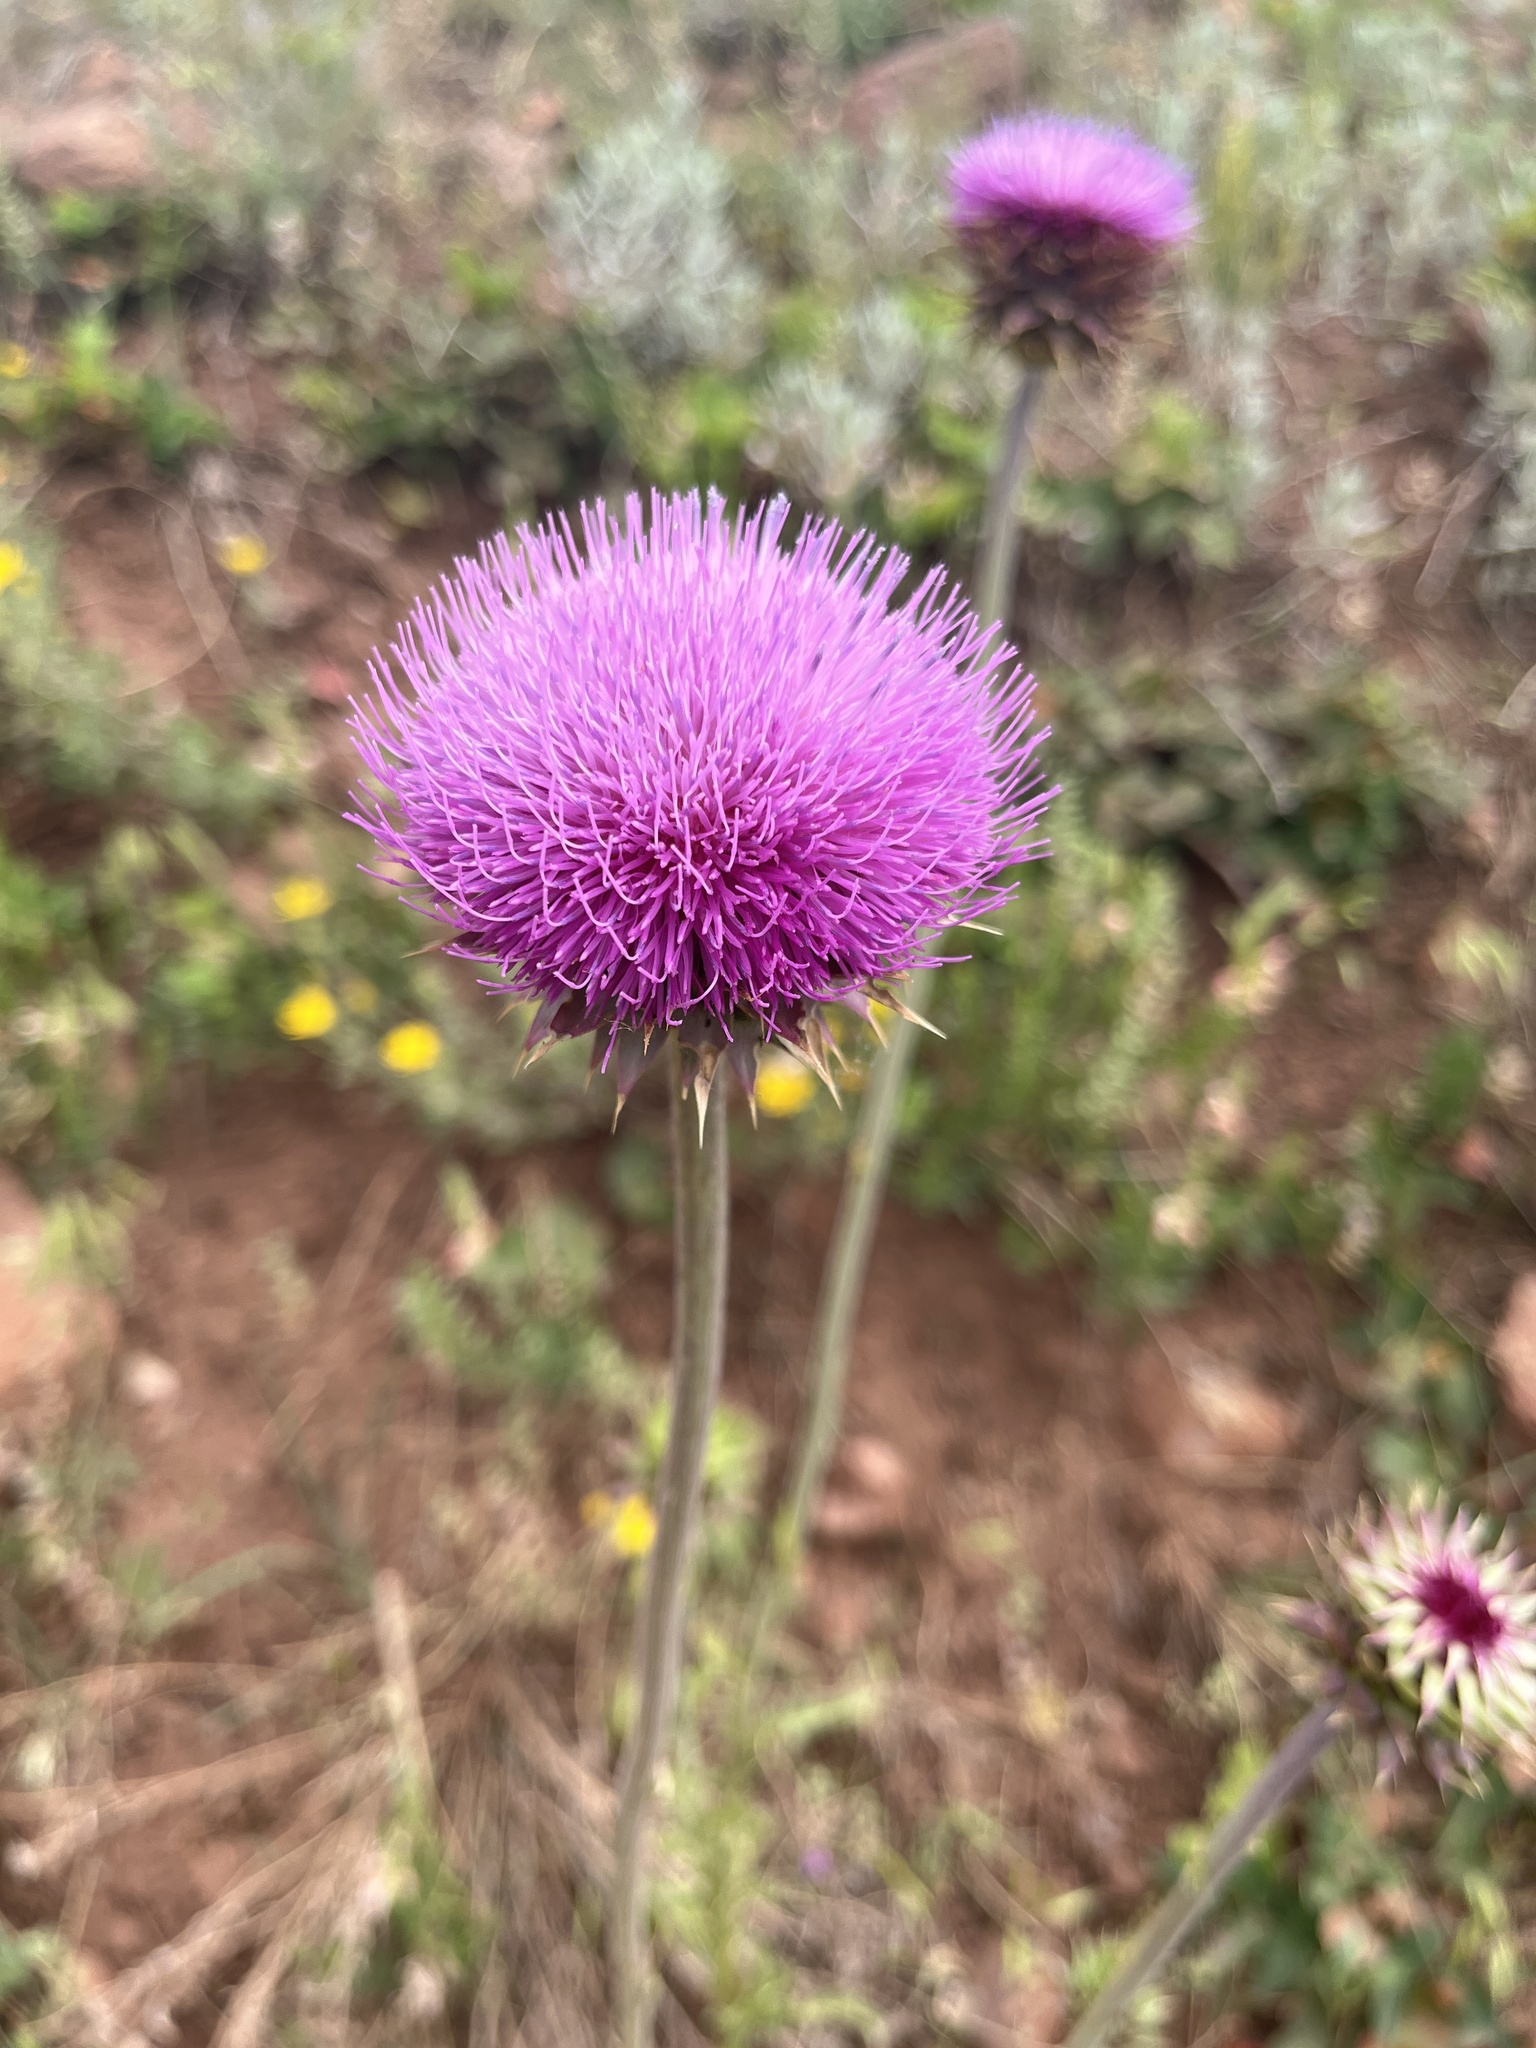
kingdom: Plantae
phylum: Tracheophyta
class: Magnoliopsida
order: Asterales
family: Asteraceae
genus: Carduus
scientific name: Carduus nutans
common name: Musk thistle
